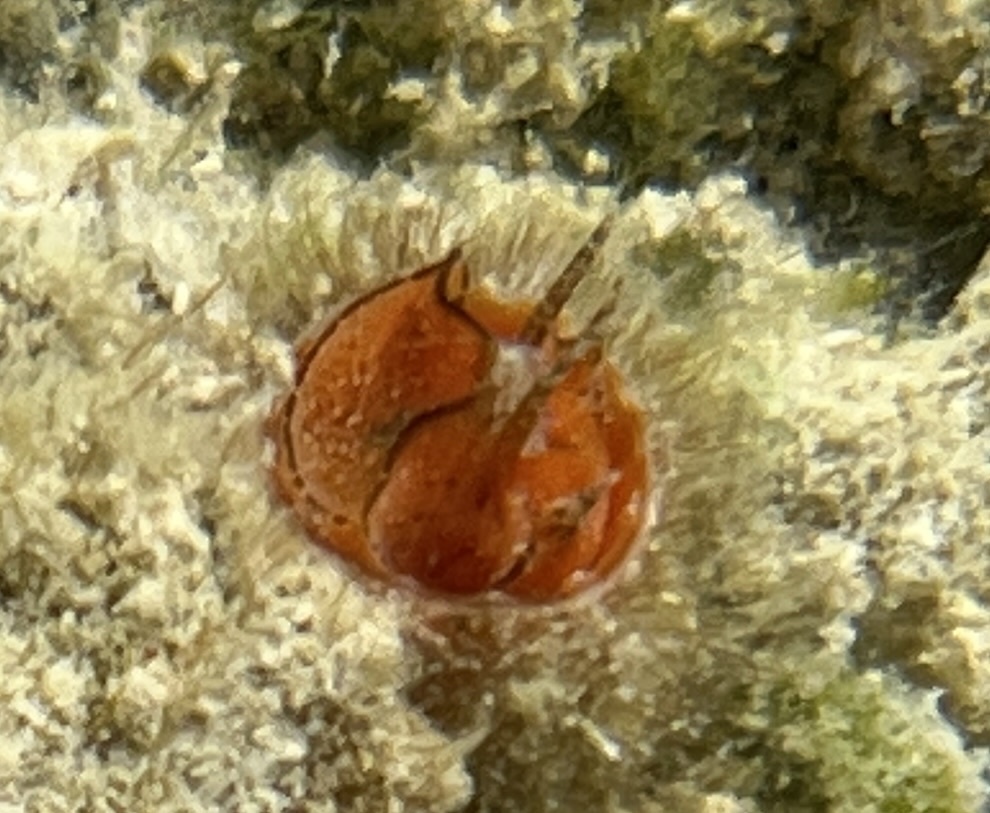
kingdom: Animalia
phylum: Mollusca
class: Gastropoda
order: Littorinimorpha
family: Vermetidae
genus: Thylacodes
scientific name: Thylacodes decussatus
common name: Decussate wormsnail
